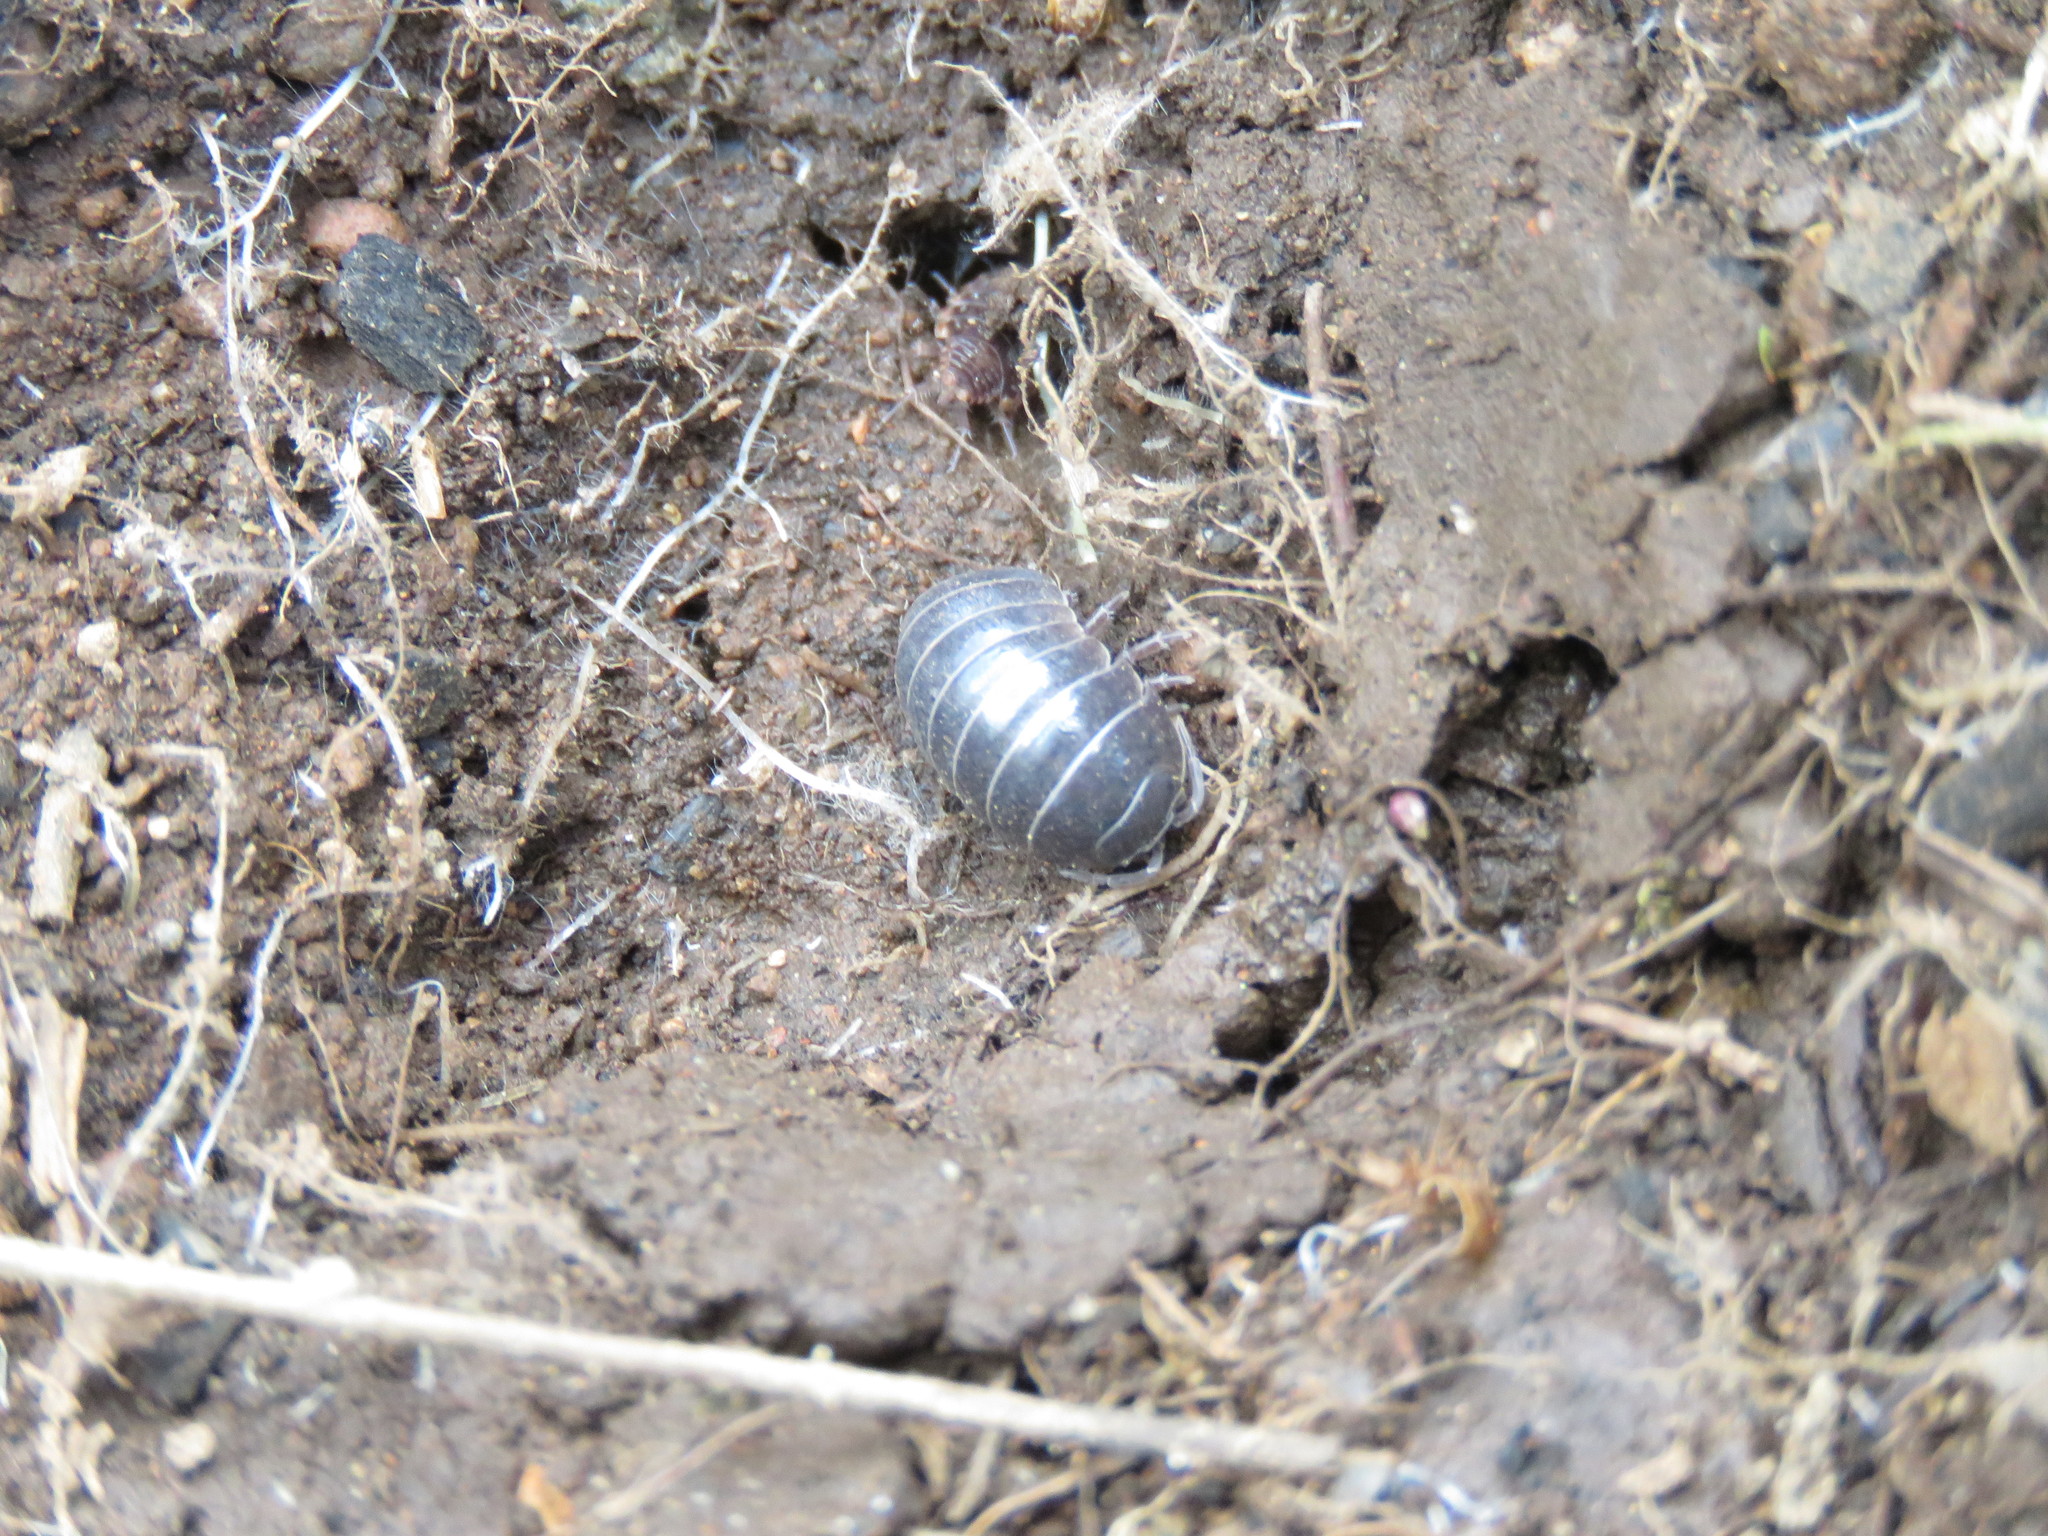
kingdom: Animalia
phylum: Arthropoda
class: Malacostraca
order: Isopoda
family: Armadillidiidae
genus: Armadillidium
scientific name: Armadillidium vulgare
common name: Common pill woodlouse
